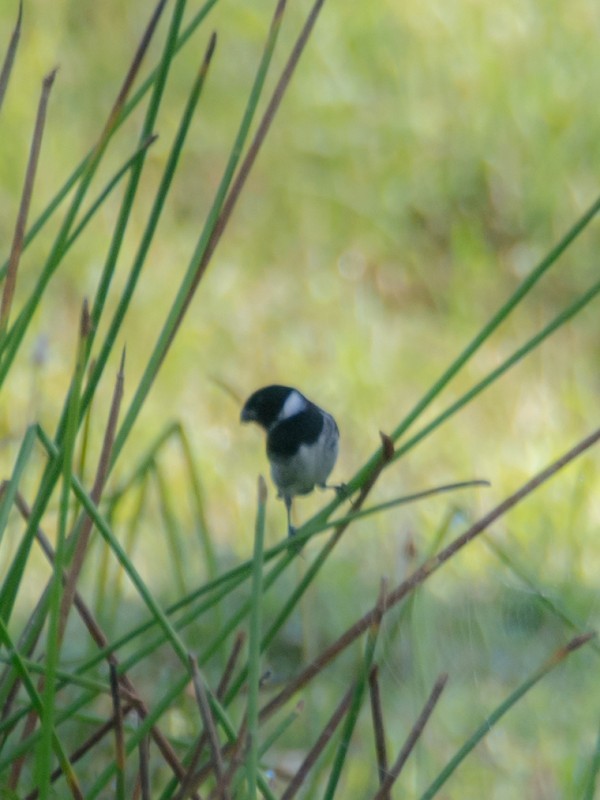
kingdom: Animalia
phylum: Chordata
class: Aves
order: Passeriformes
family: Thraupidae
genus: Sporophila
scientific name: Sporophila corvina
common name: Variable seedeater
